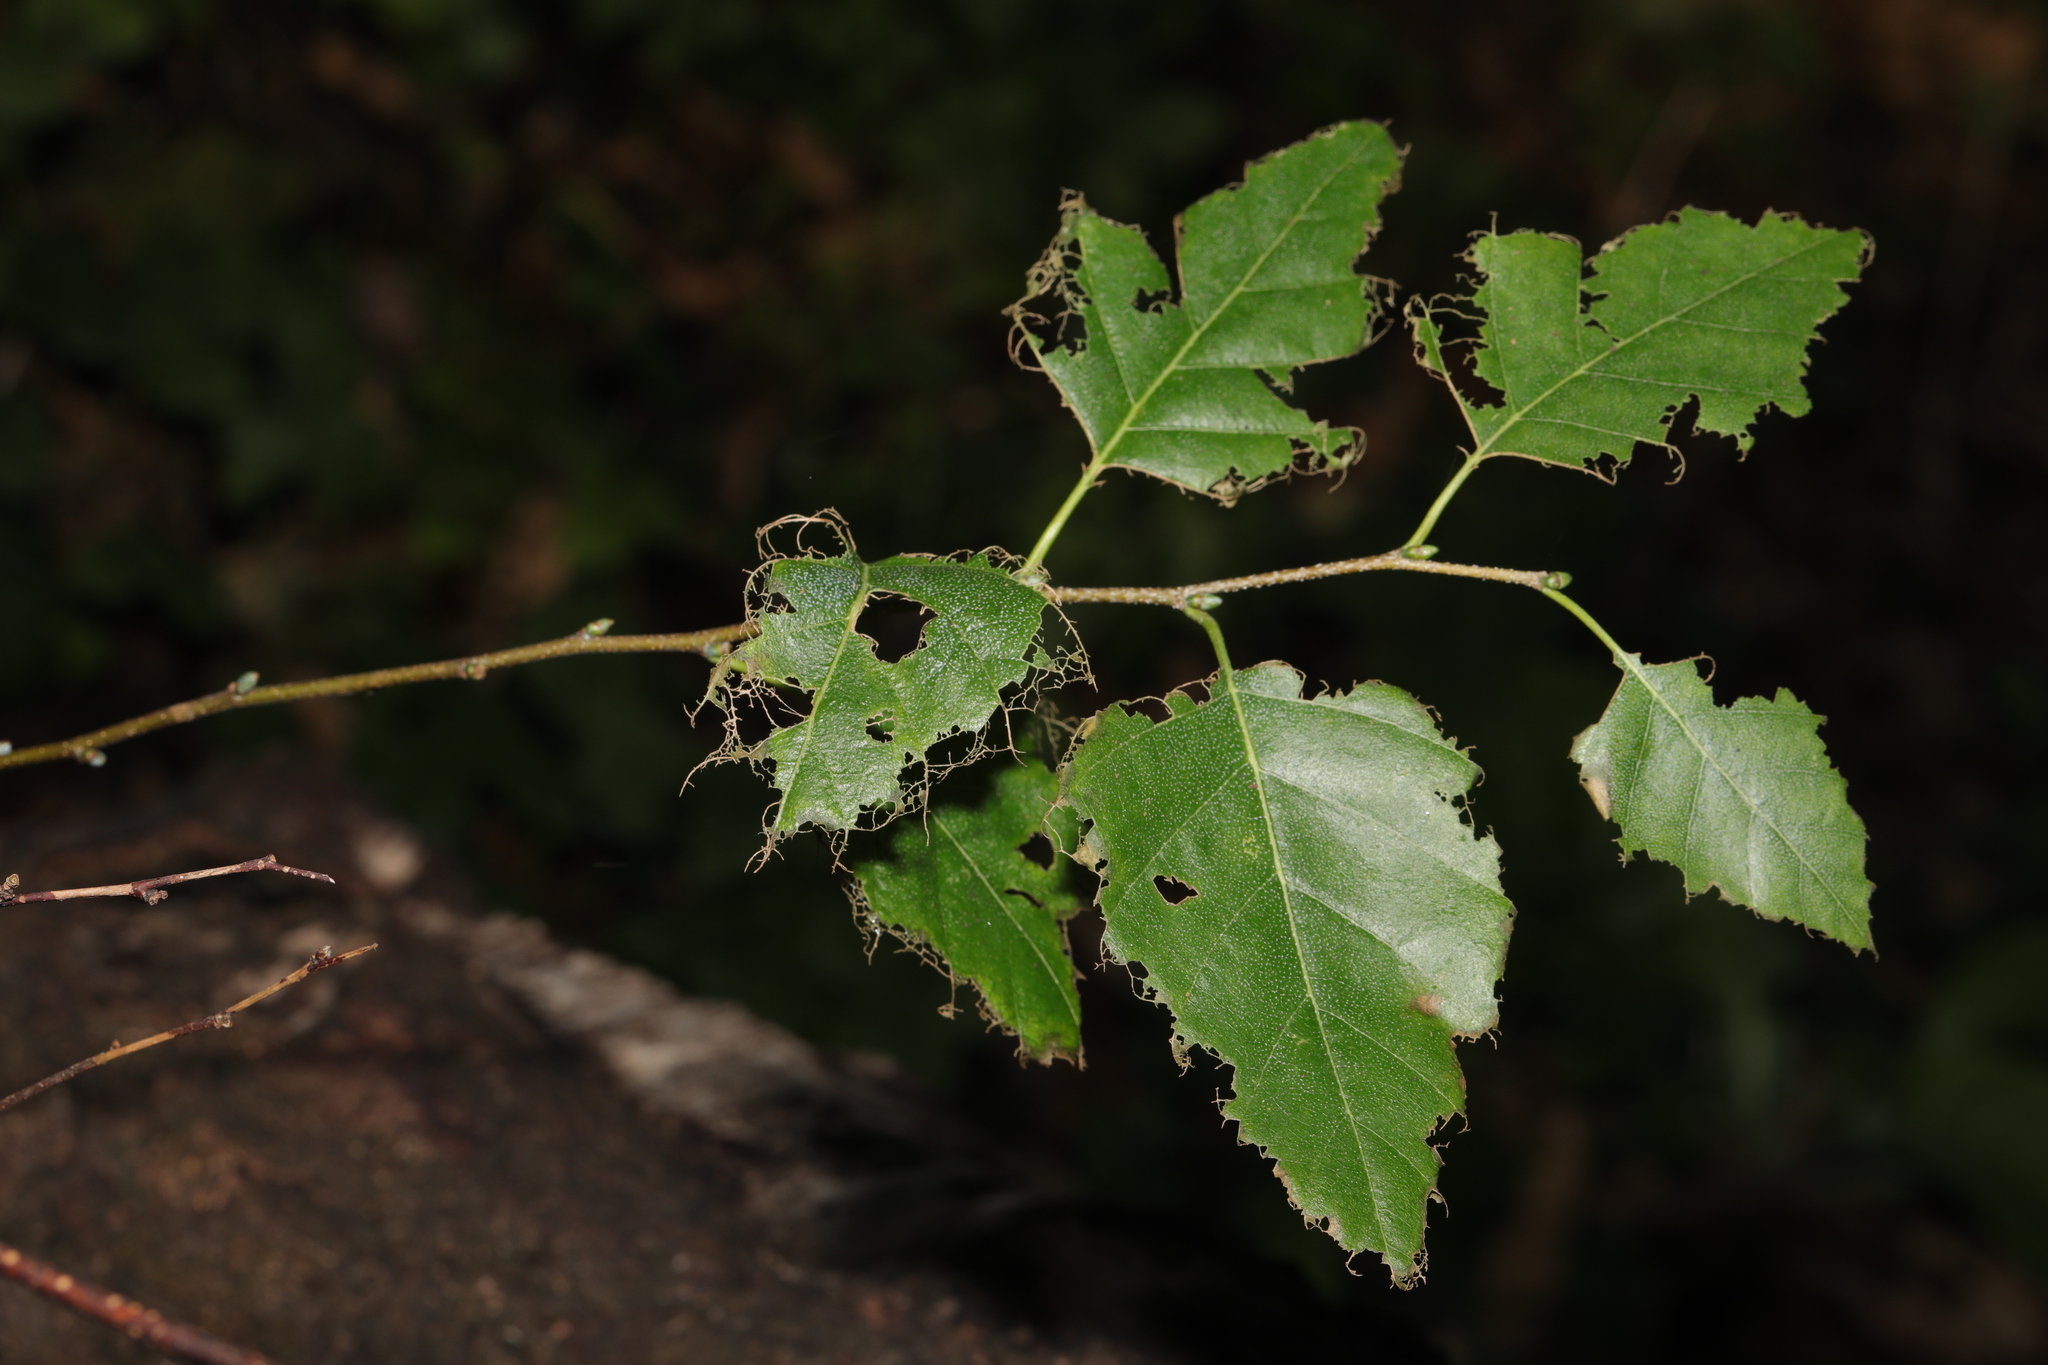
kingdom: Plantae
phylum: Tracheophyta
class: Magnoliopsida
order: Fagales
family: Betulaceae
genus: Betula
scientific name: Betula pendula
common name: Silver birch
